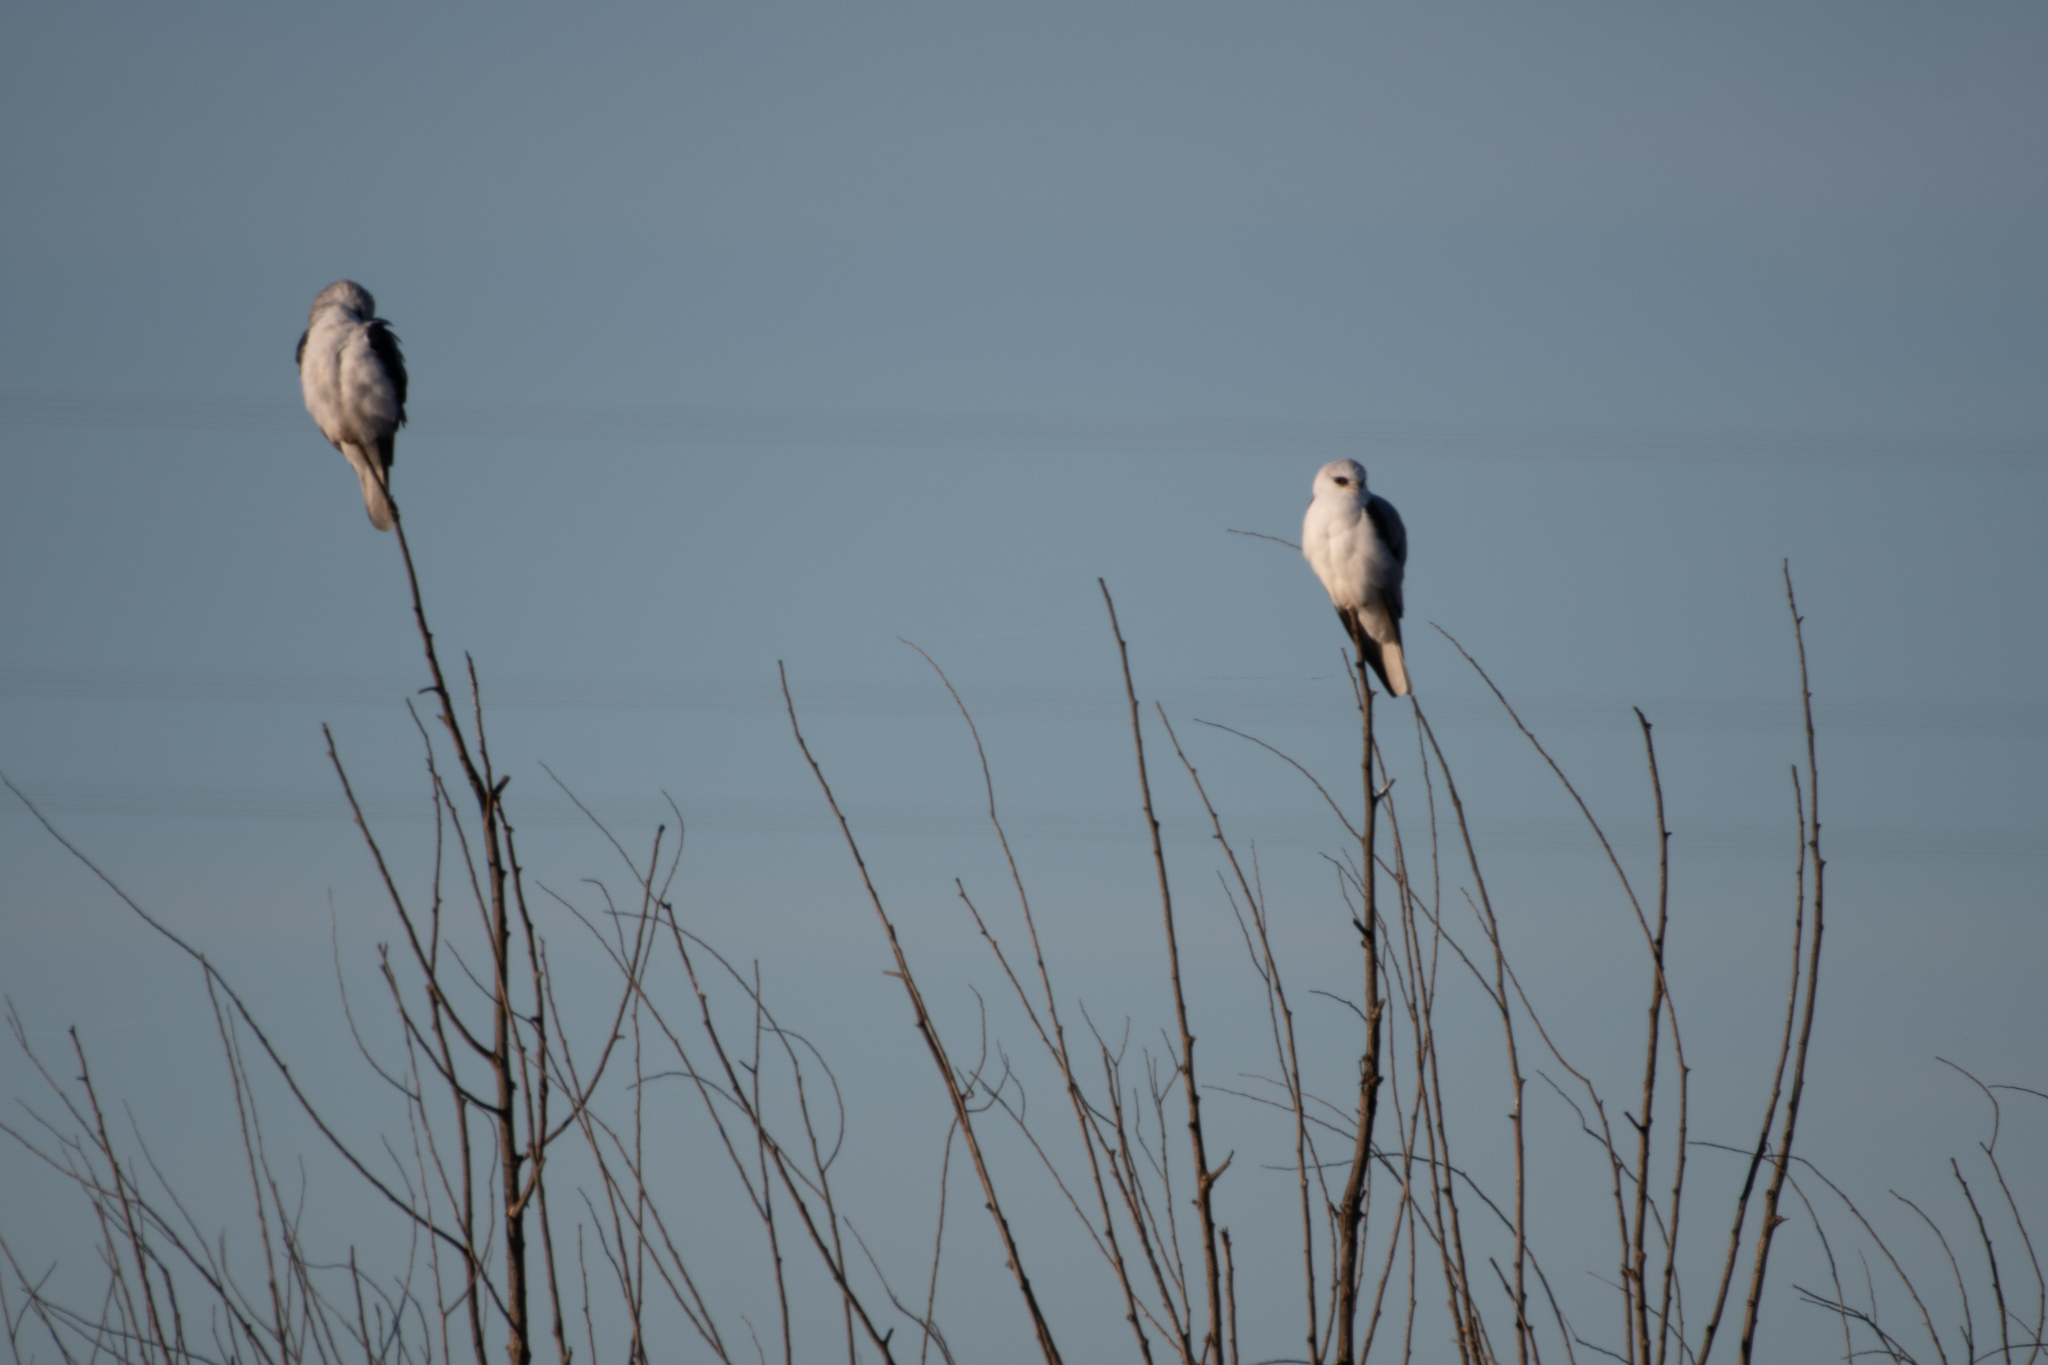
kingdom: Animalia
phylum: Chordata
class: Aves
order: Accipitriformes
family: Accipitridae
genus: Elanus
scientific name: Elanus leucurus
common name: White-tailed kite
